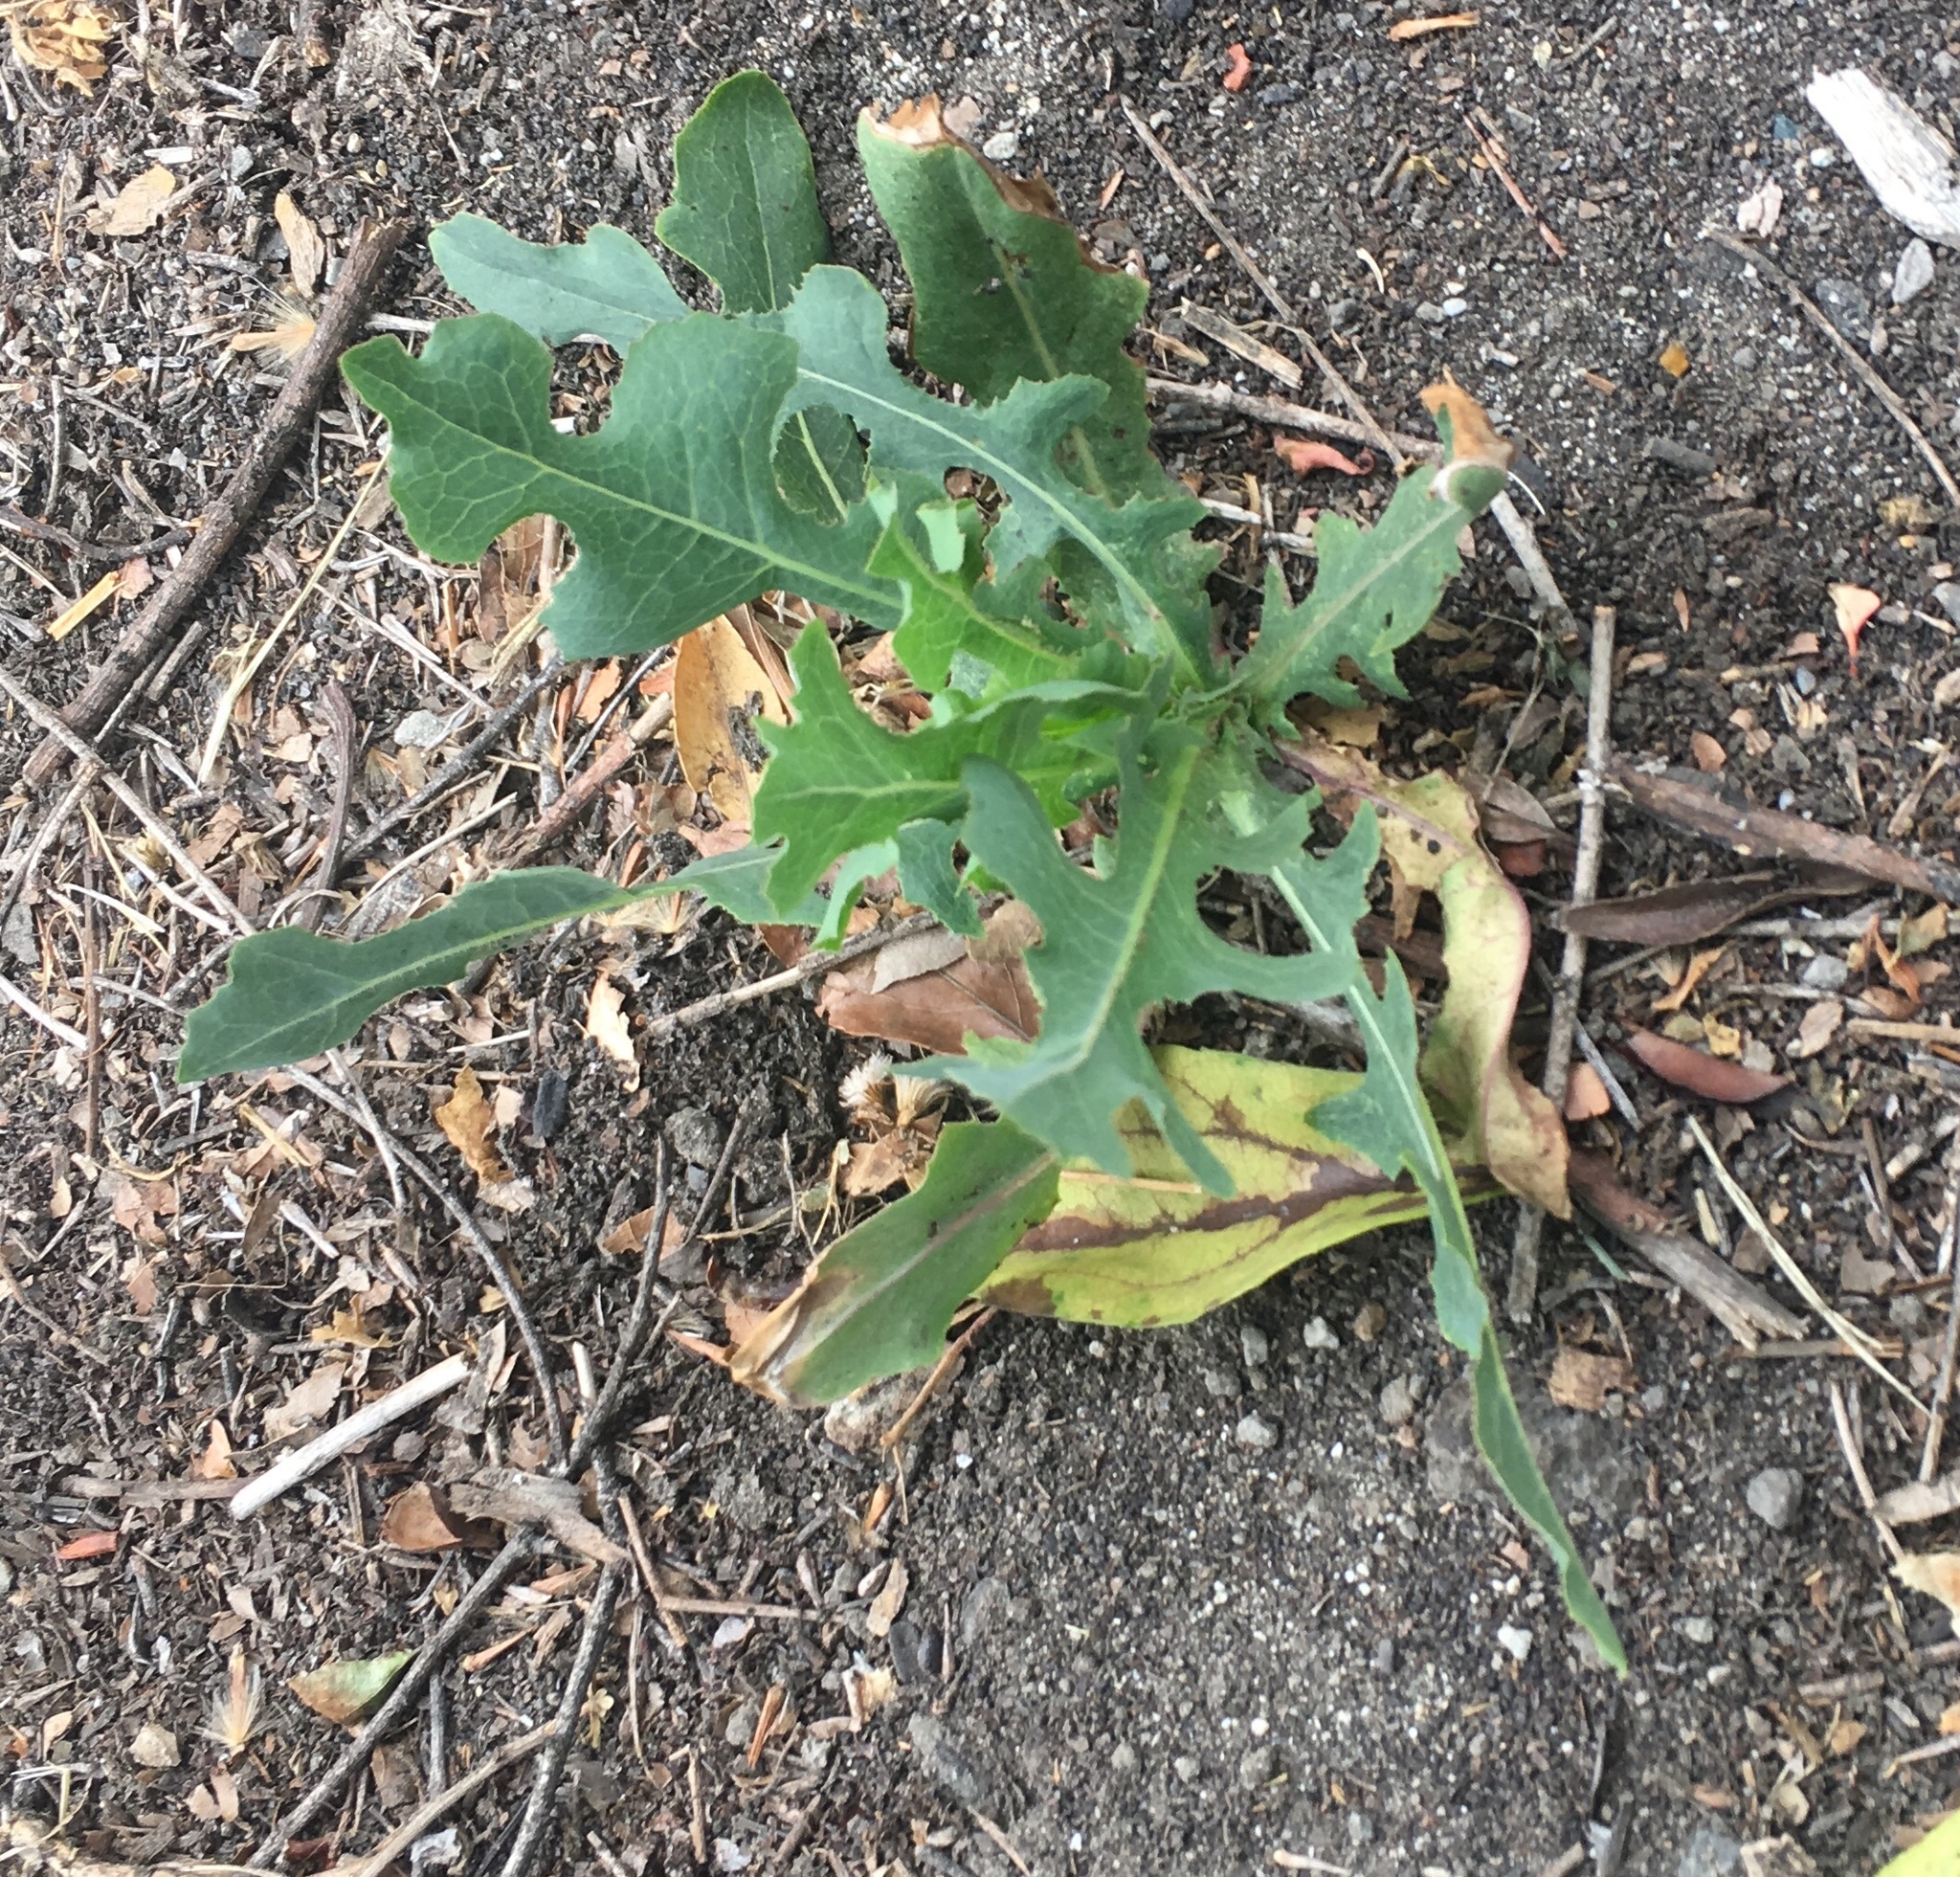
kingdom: Plantae
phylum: Tracheophyta
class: Magnoliopsida
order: Asterales
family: Asteraceae
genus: Lactuca
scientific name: Lactuca serriola
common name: Prickly lettuce
